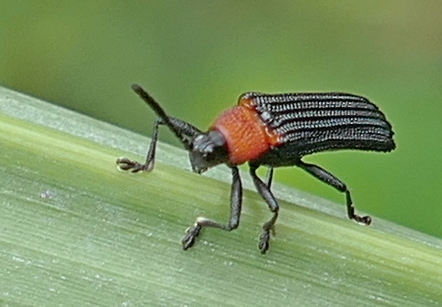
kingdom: Animalia
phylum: Arthropoda
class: Insecta
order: Coleoptera
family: Chrysomelidae
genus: Chalepus
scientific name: Chalepus notula
